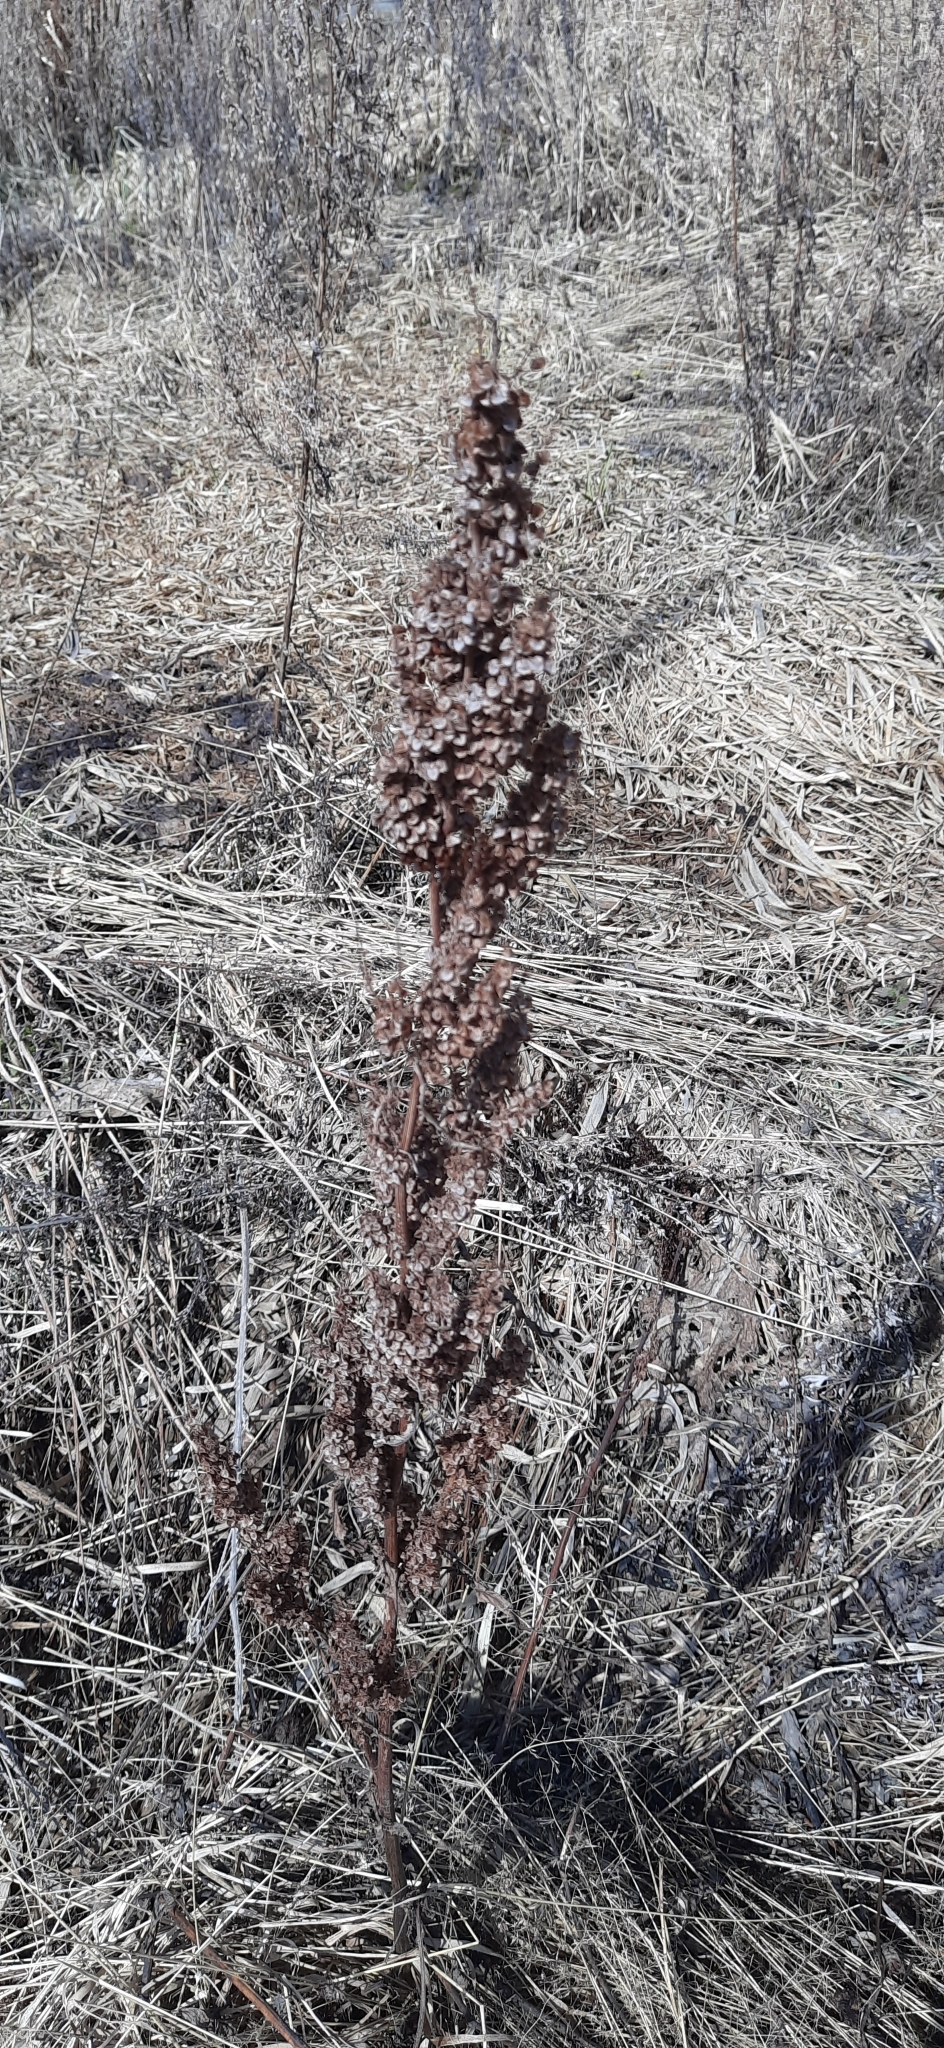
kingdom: Plantae
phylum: Tracheophyta
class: Magnoliopsida
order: Caryophyllales
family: Polygonaceae
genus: Rumex
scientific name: Rumex pseudonatronatus
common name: Field dock
